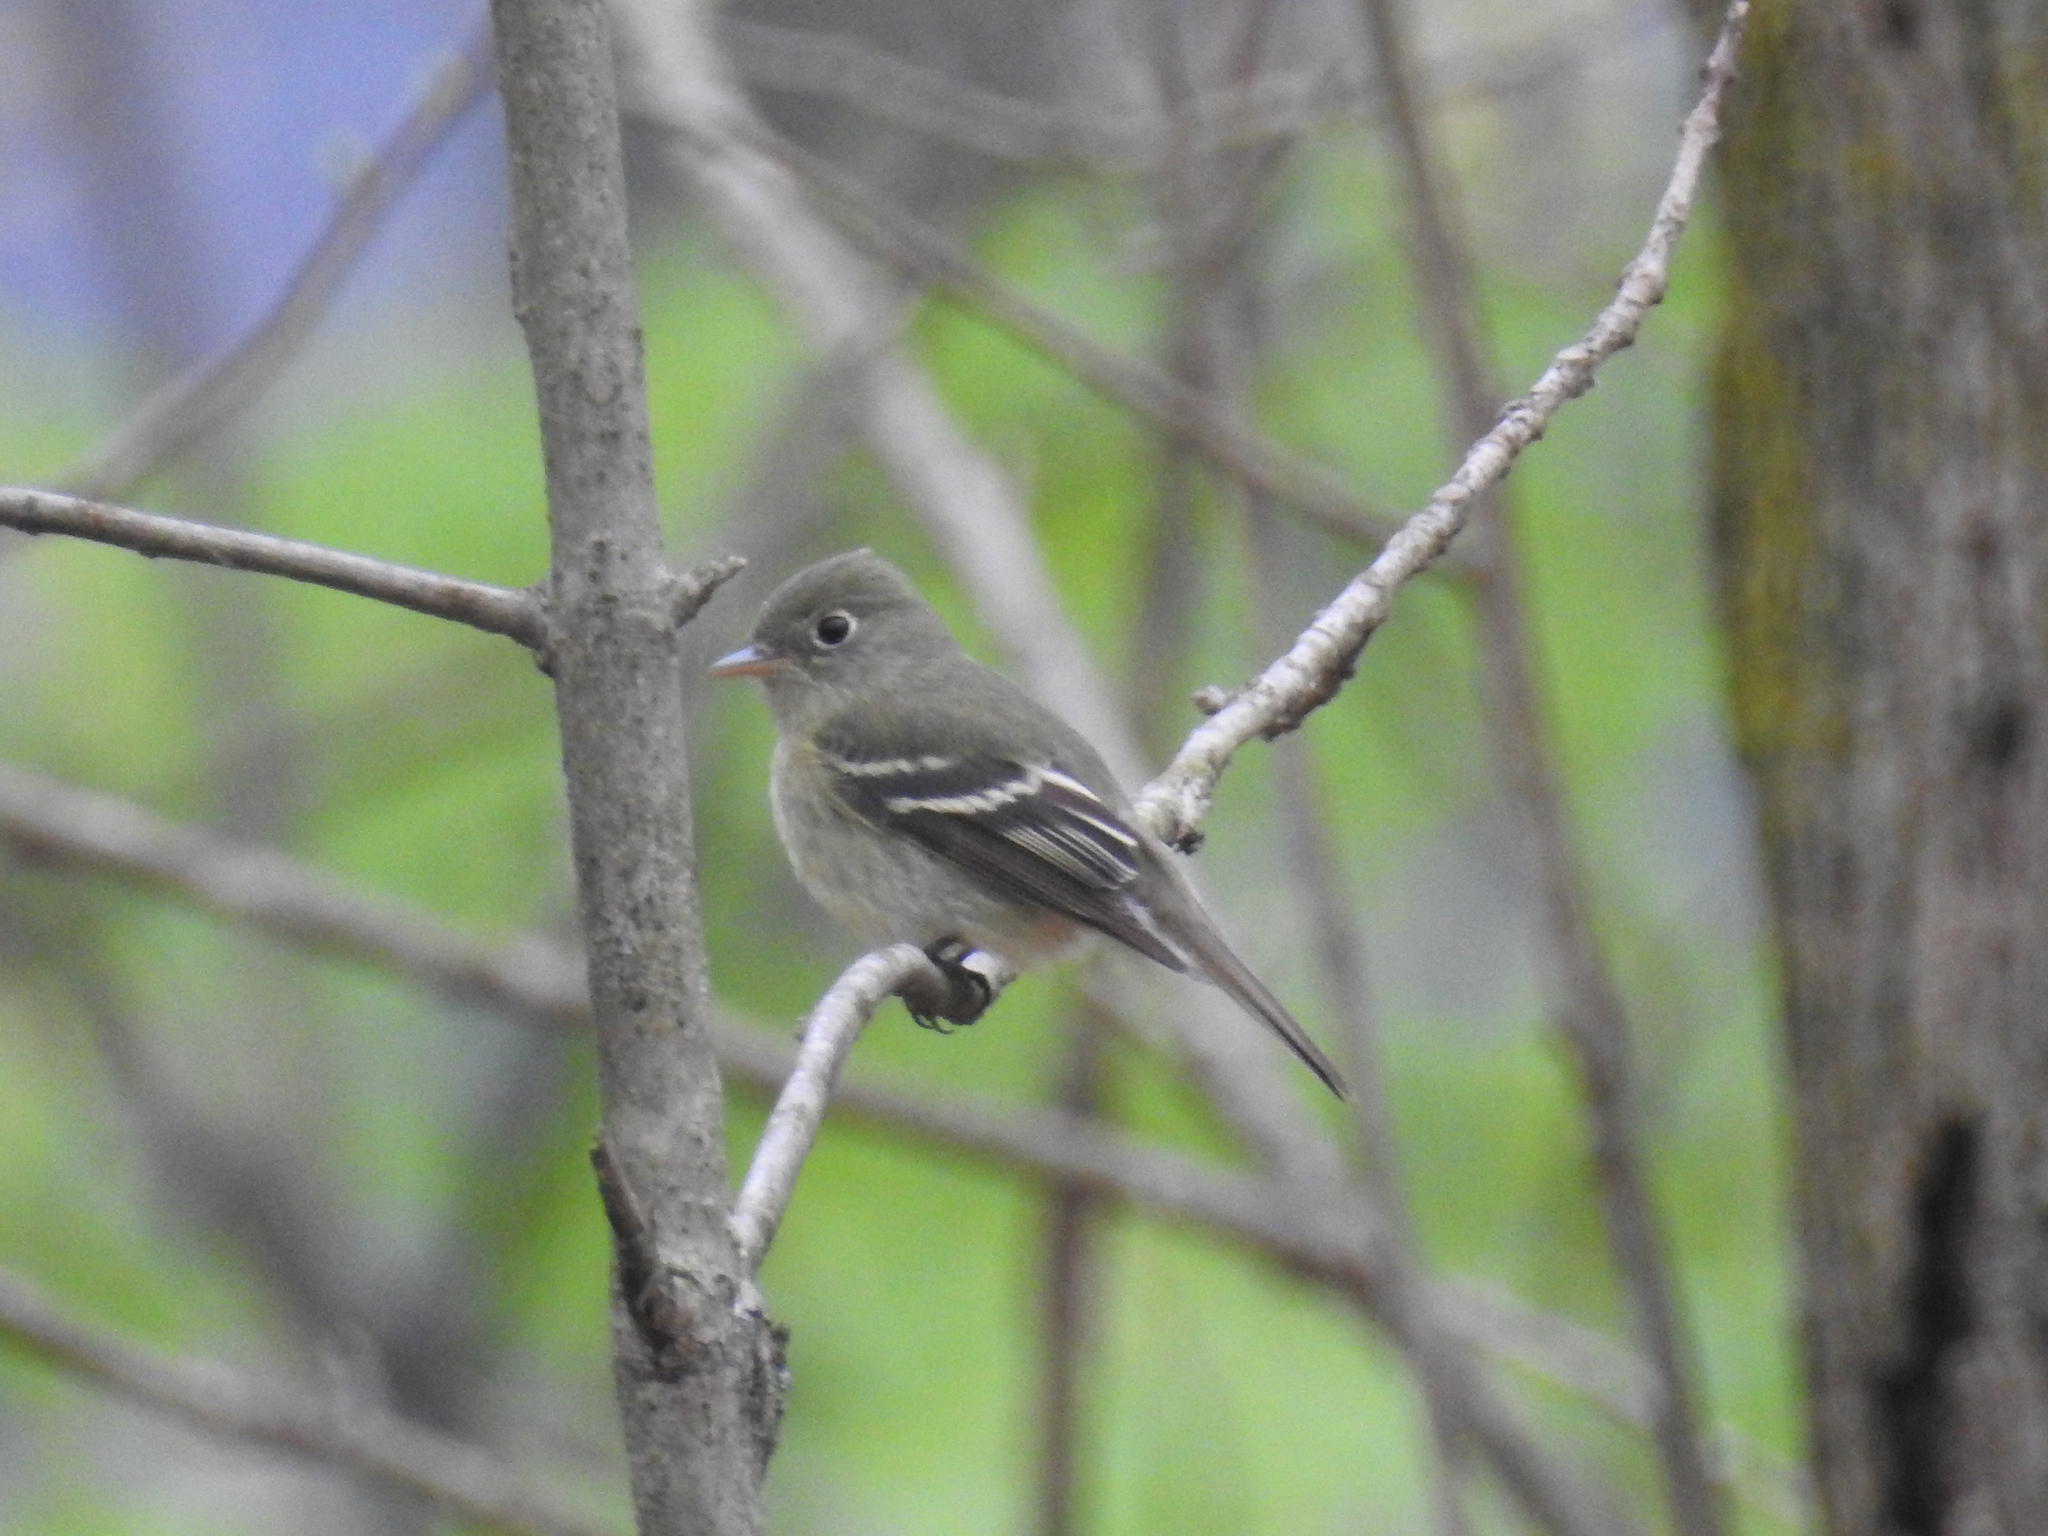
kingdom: Animalia
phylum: Chordata
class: Aves
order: Passeriformes
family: Tyrannidae
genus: Empidonax
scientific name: Empidonax flaviventris
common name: Yellow-bellied flycatcher
